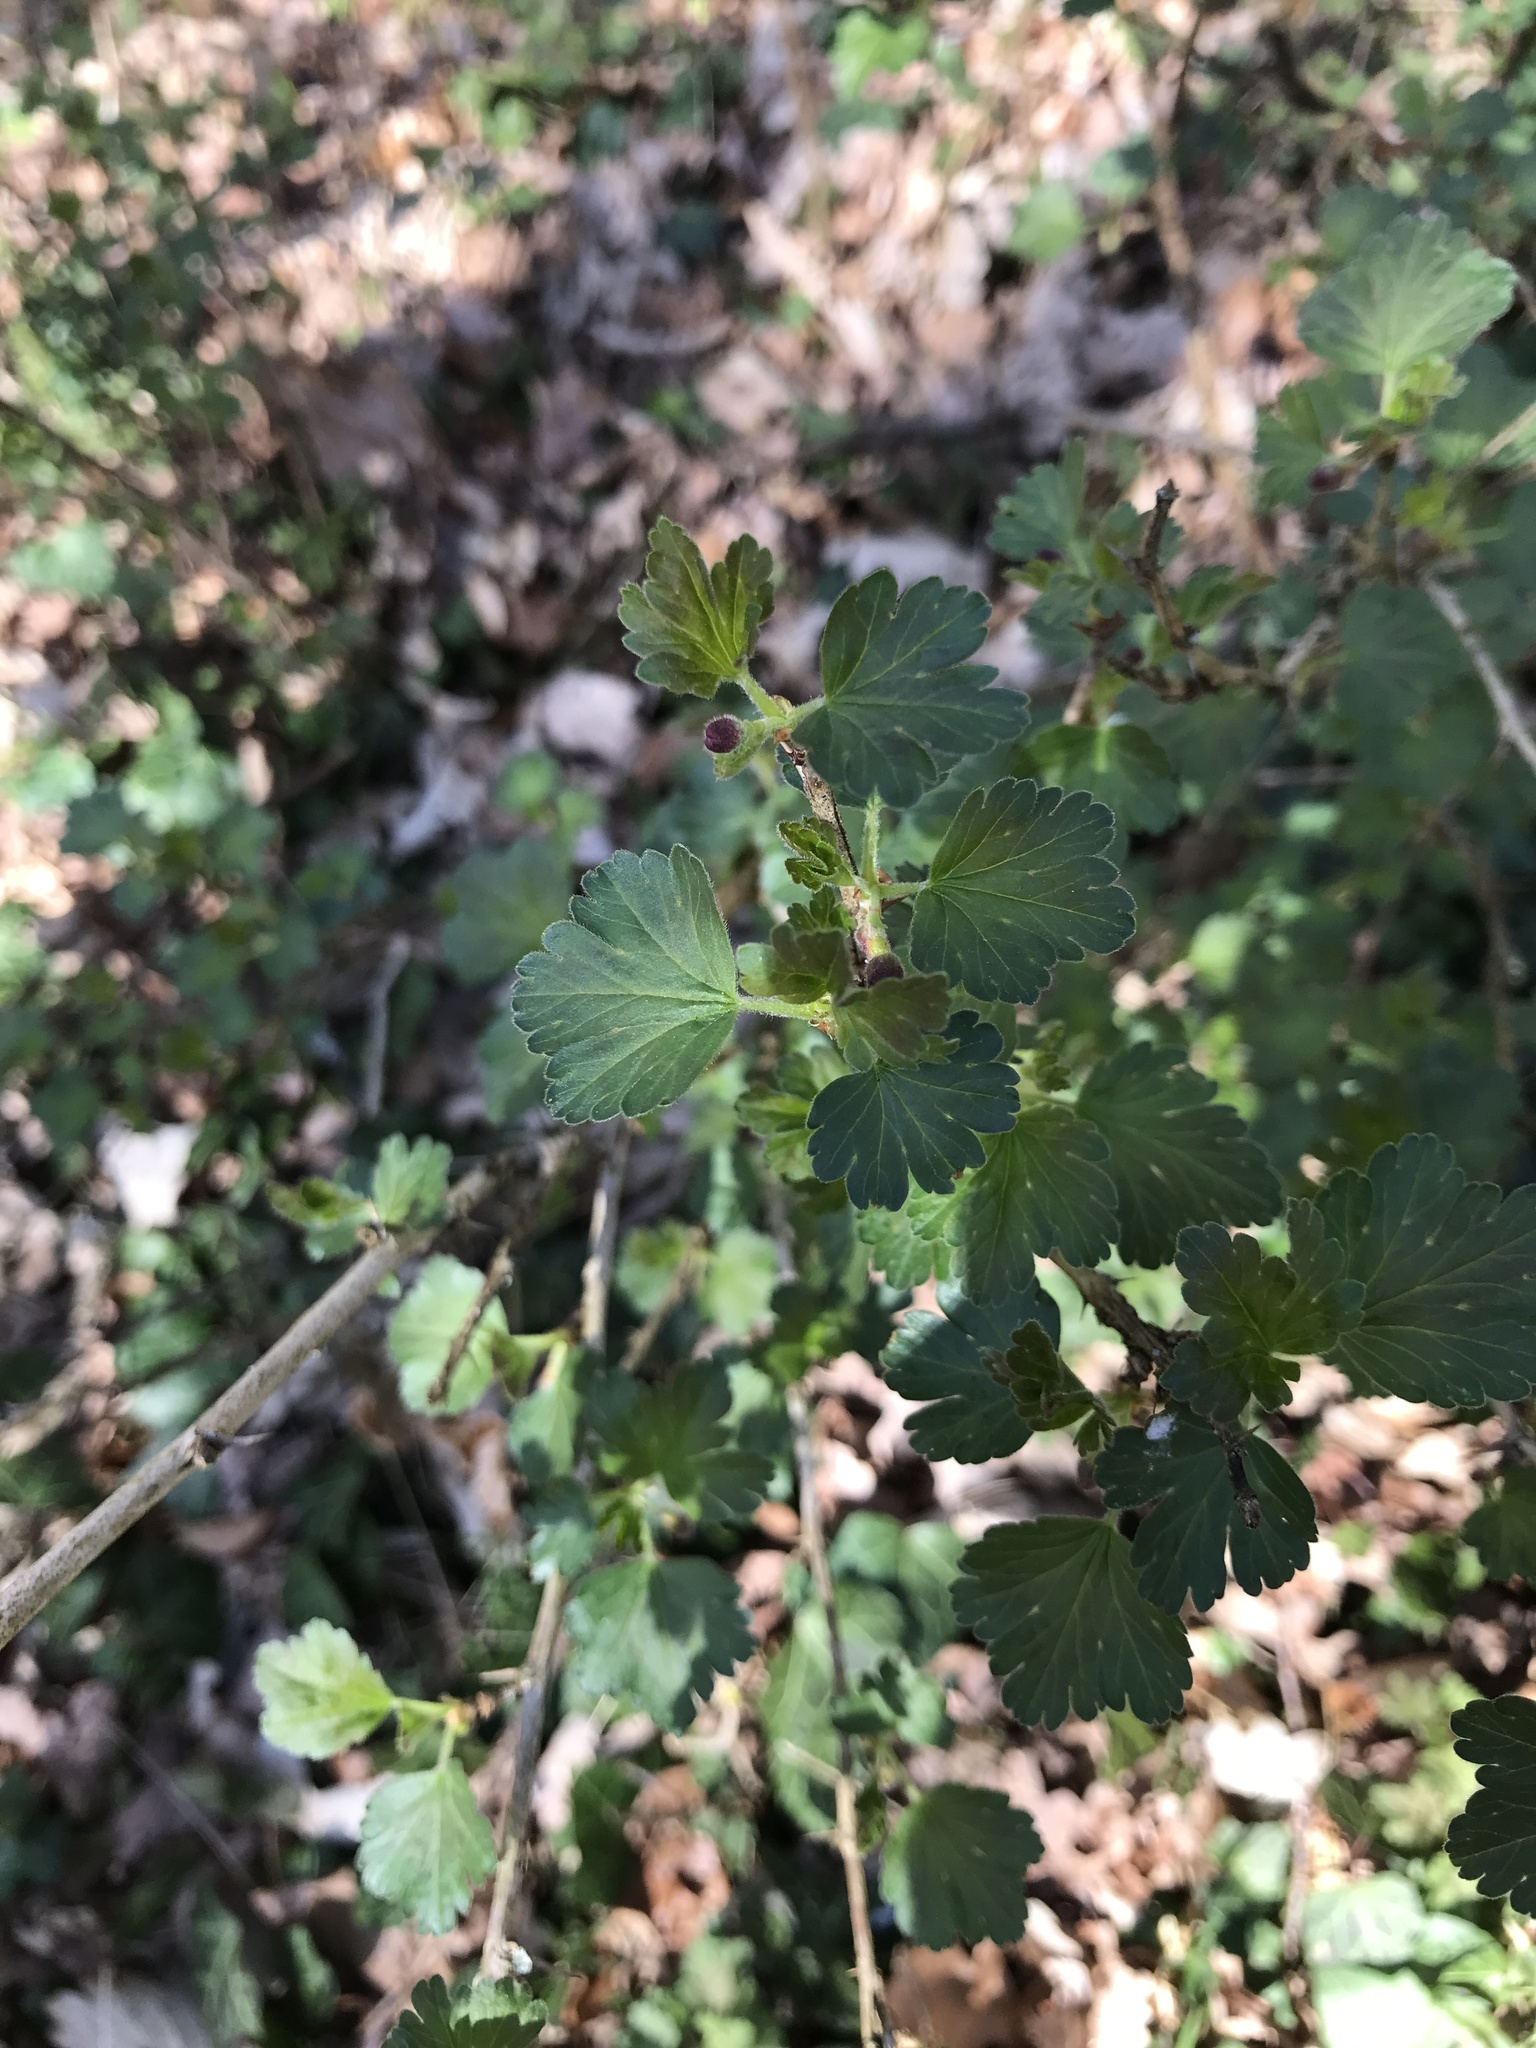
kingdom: Plantae
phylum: Tracheophyta
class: Magnoliopsida
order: Saxifragales
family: Grossulariaceae
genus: Ribes
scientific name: Ribes uva-crispa
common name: Gooseberry
